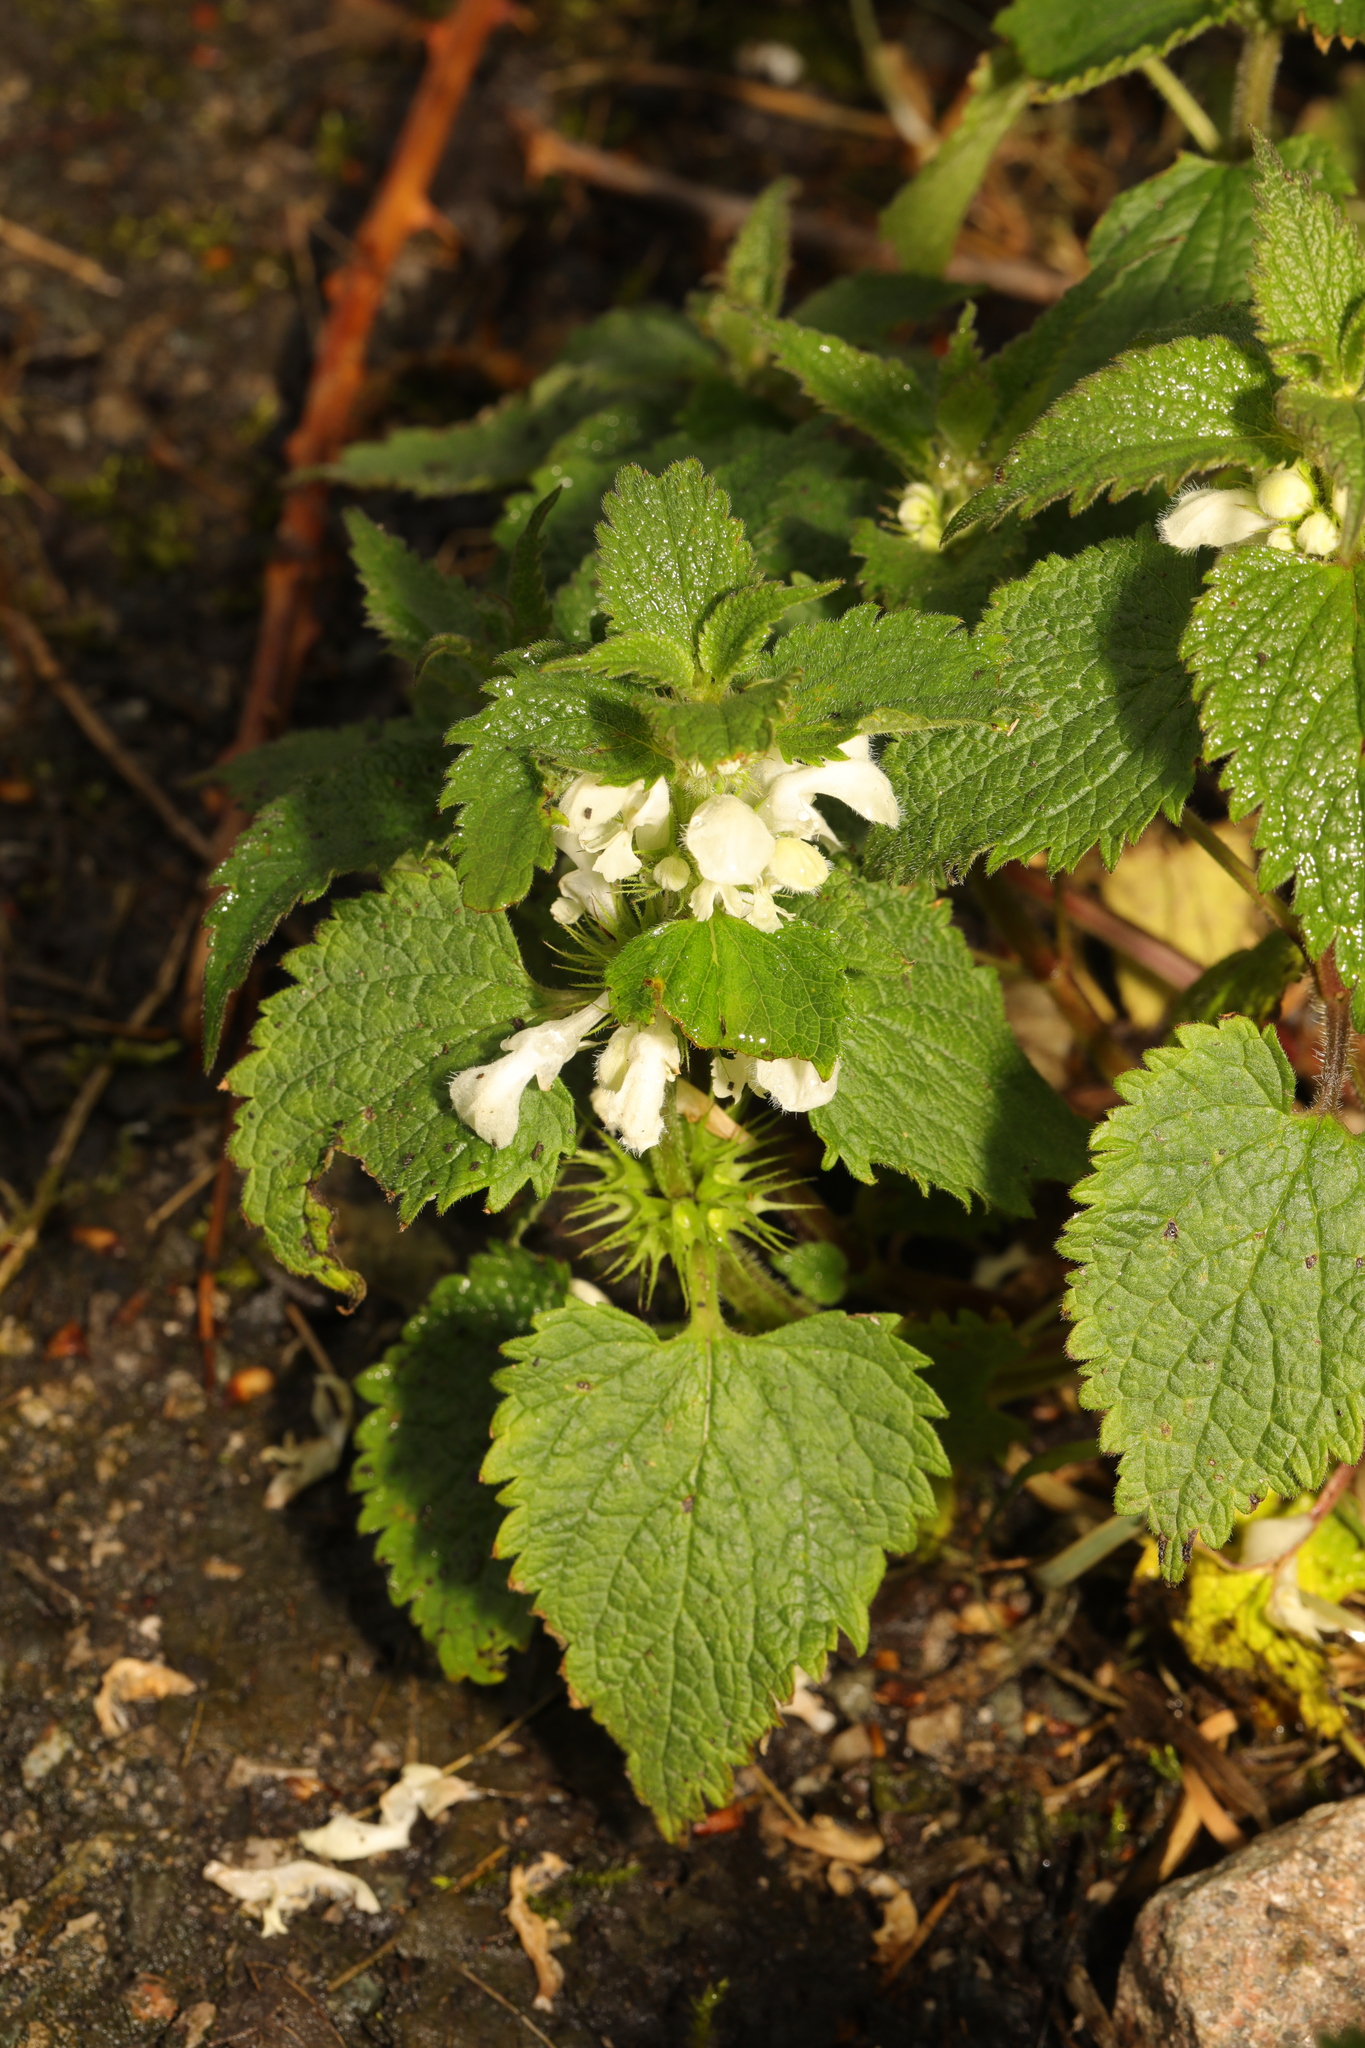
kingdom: Plantae
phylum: Tracheophyta
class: Magnoliopsida
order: Lamiales
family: Lamiaceae
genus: Lamium
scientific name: Lamium album
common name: White dead-nettle
